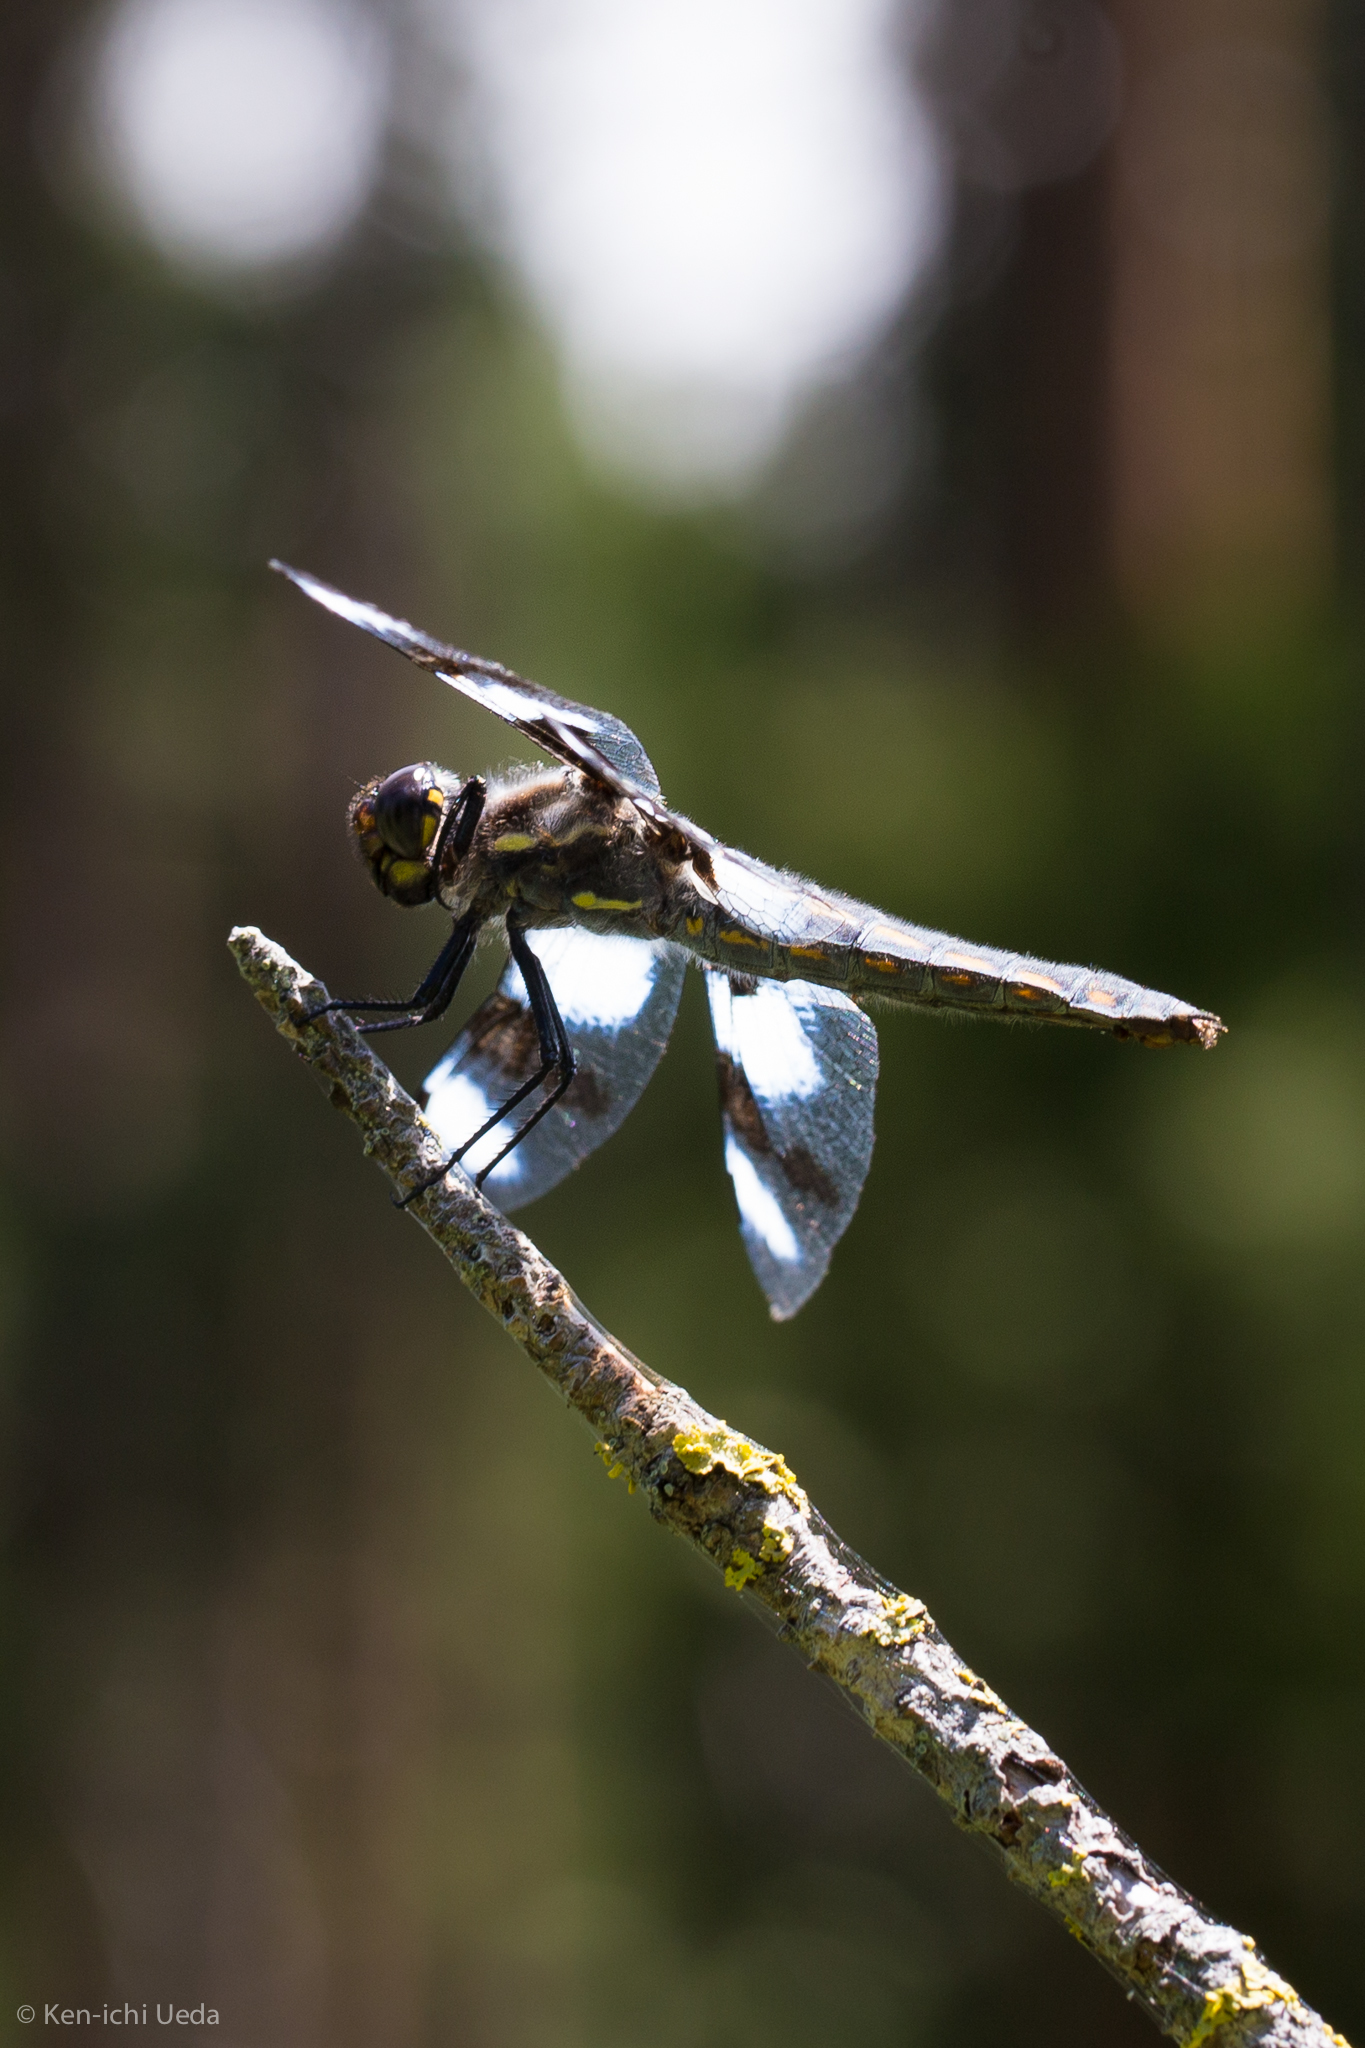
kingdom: Animalia
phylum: Arthropoda
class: Insecta
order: Odonata
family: Libellulidae
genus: Libellula
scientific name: Libellula forensis
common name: Eight-spotted skimmer
